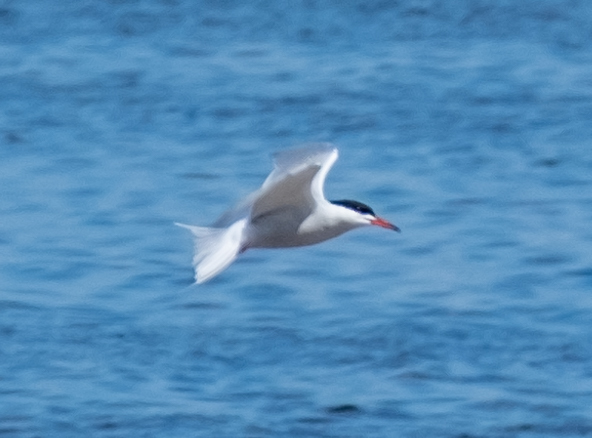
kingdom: Animalia
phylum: Chordata
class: Aves
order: Charadriiformes
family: Laridae
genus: Sterna
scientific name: Sterna hirundo
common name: Common tern
